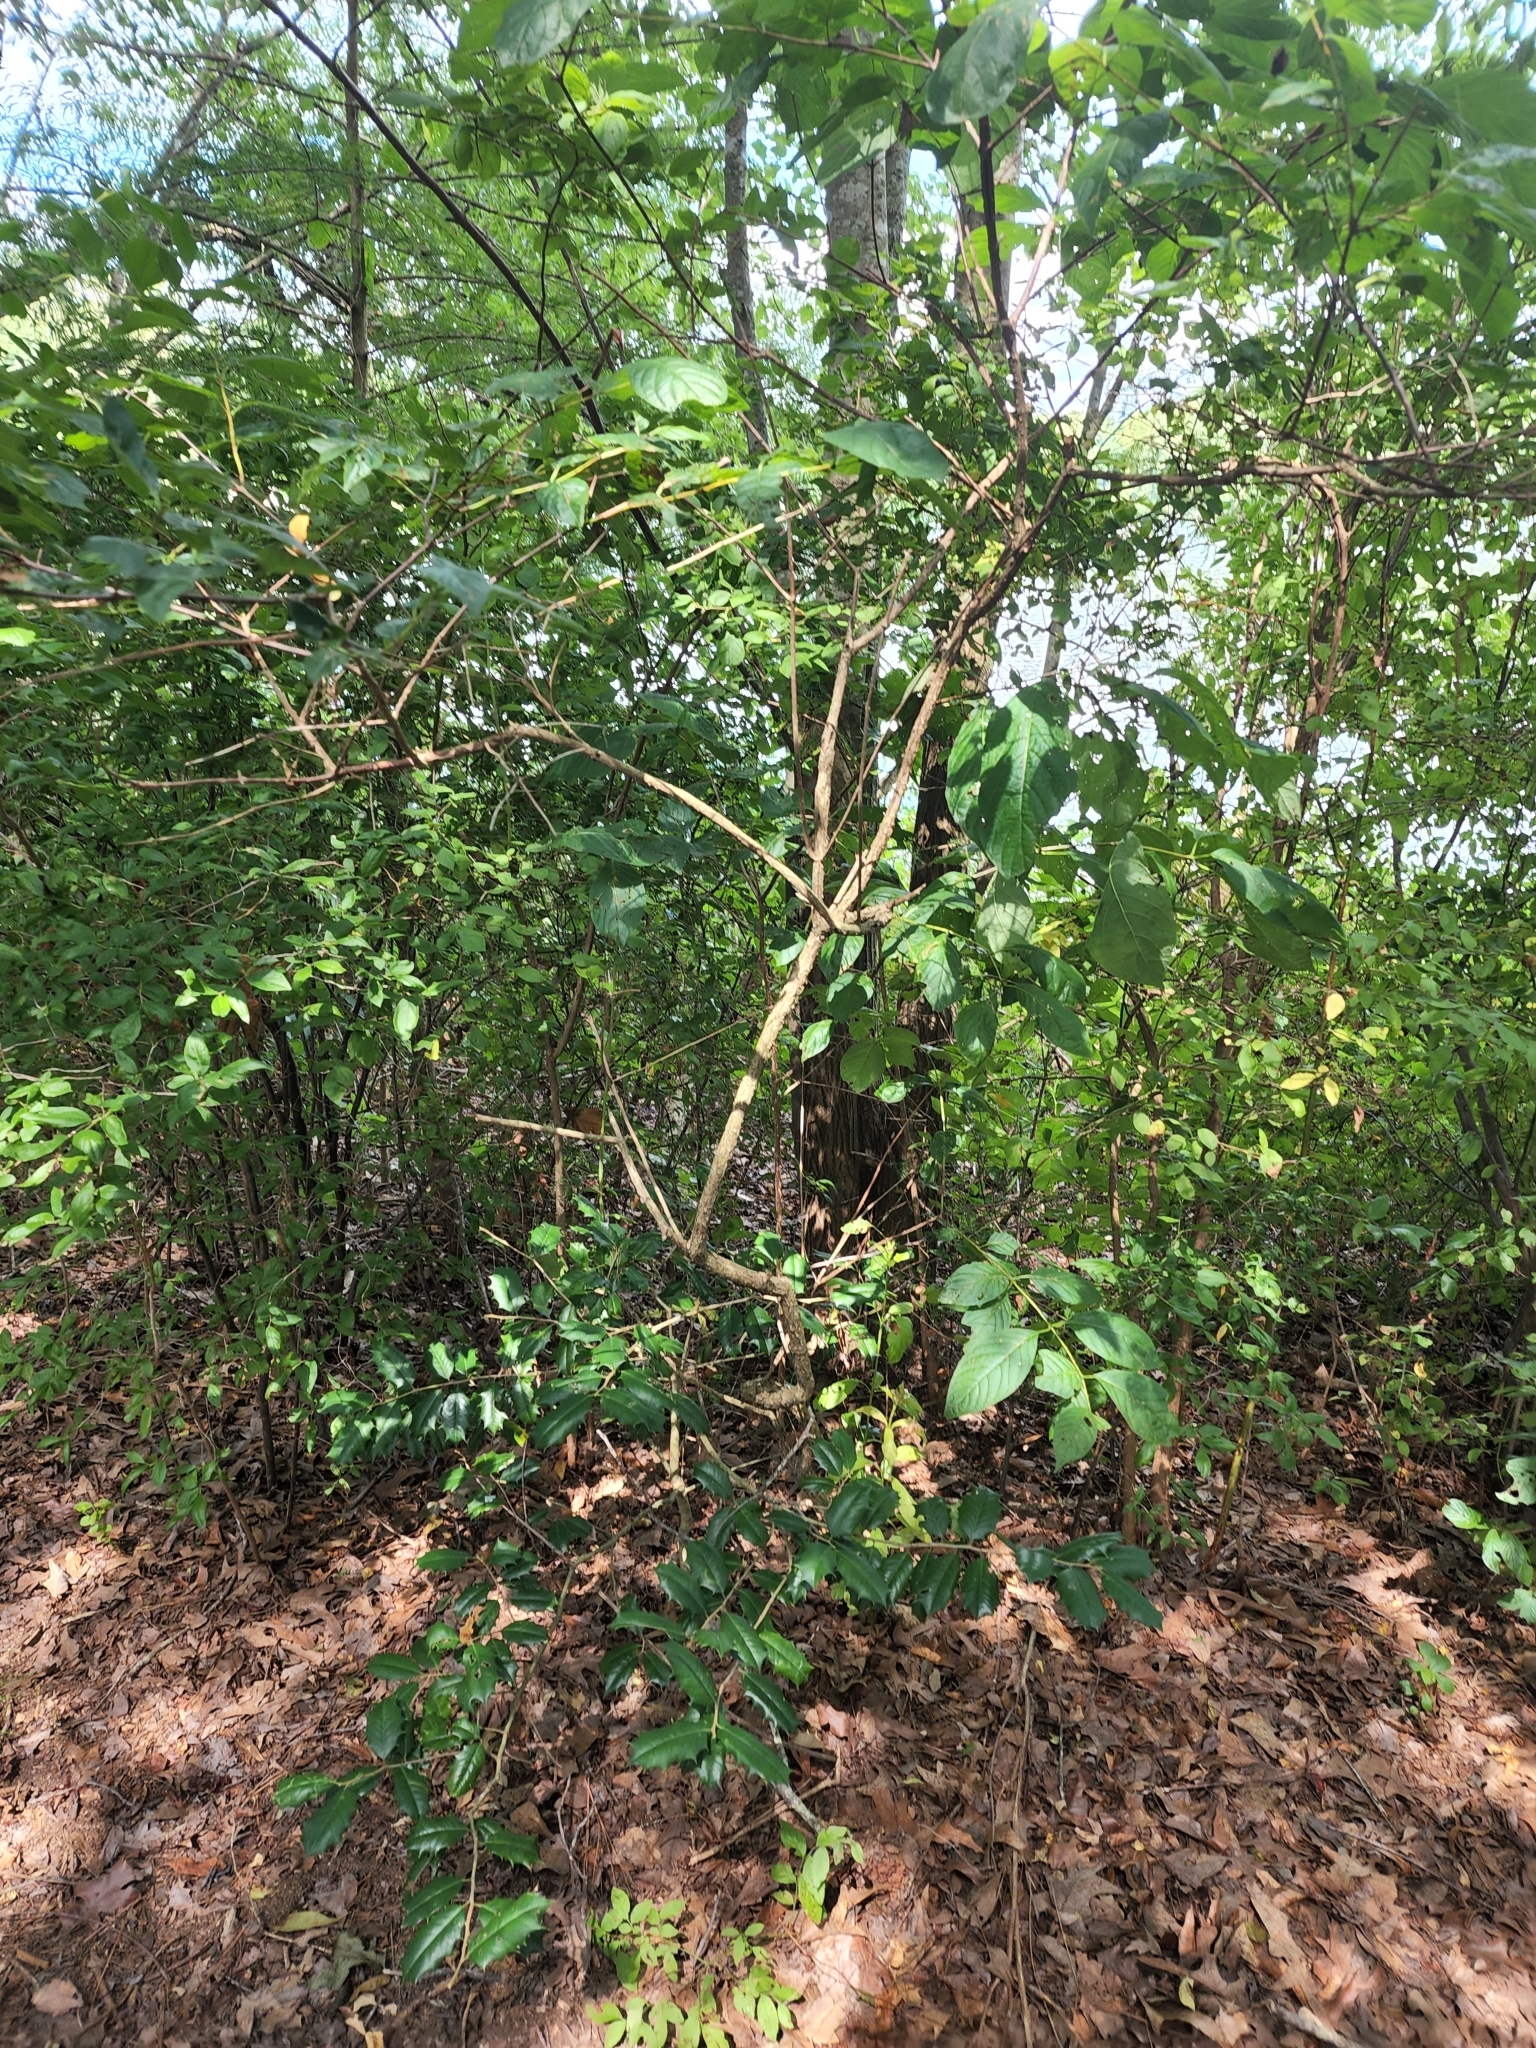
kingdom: Plantae
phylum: Tracheophyta
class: Magnoliopsida
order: Gentianales
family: Rubiaceae
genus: Cephalanthus
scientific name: Cephalanthus occidentalis
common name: Button-willow
